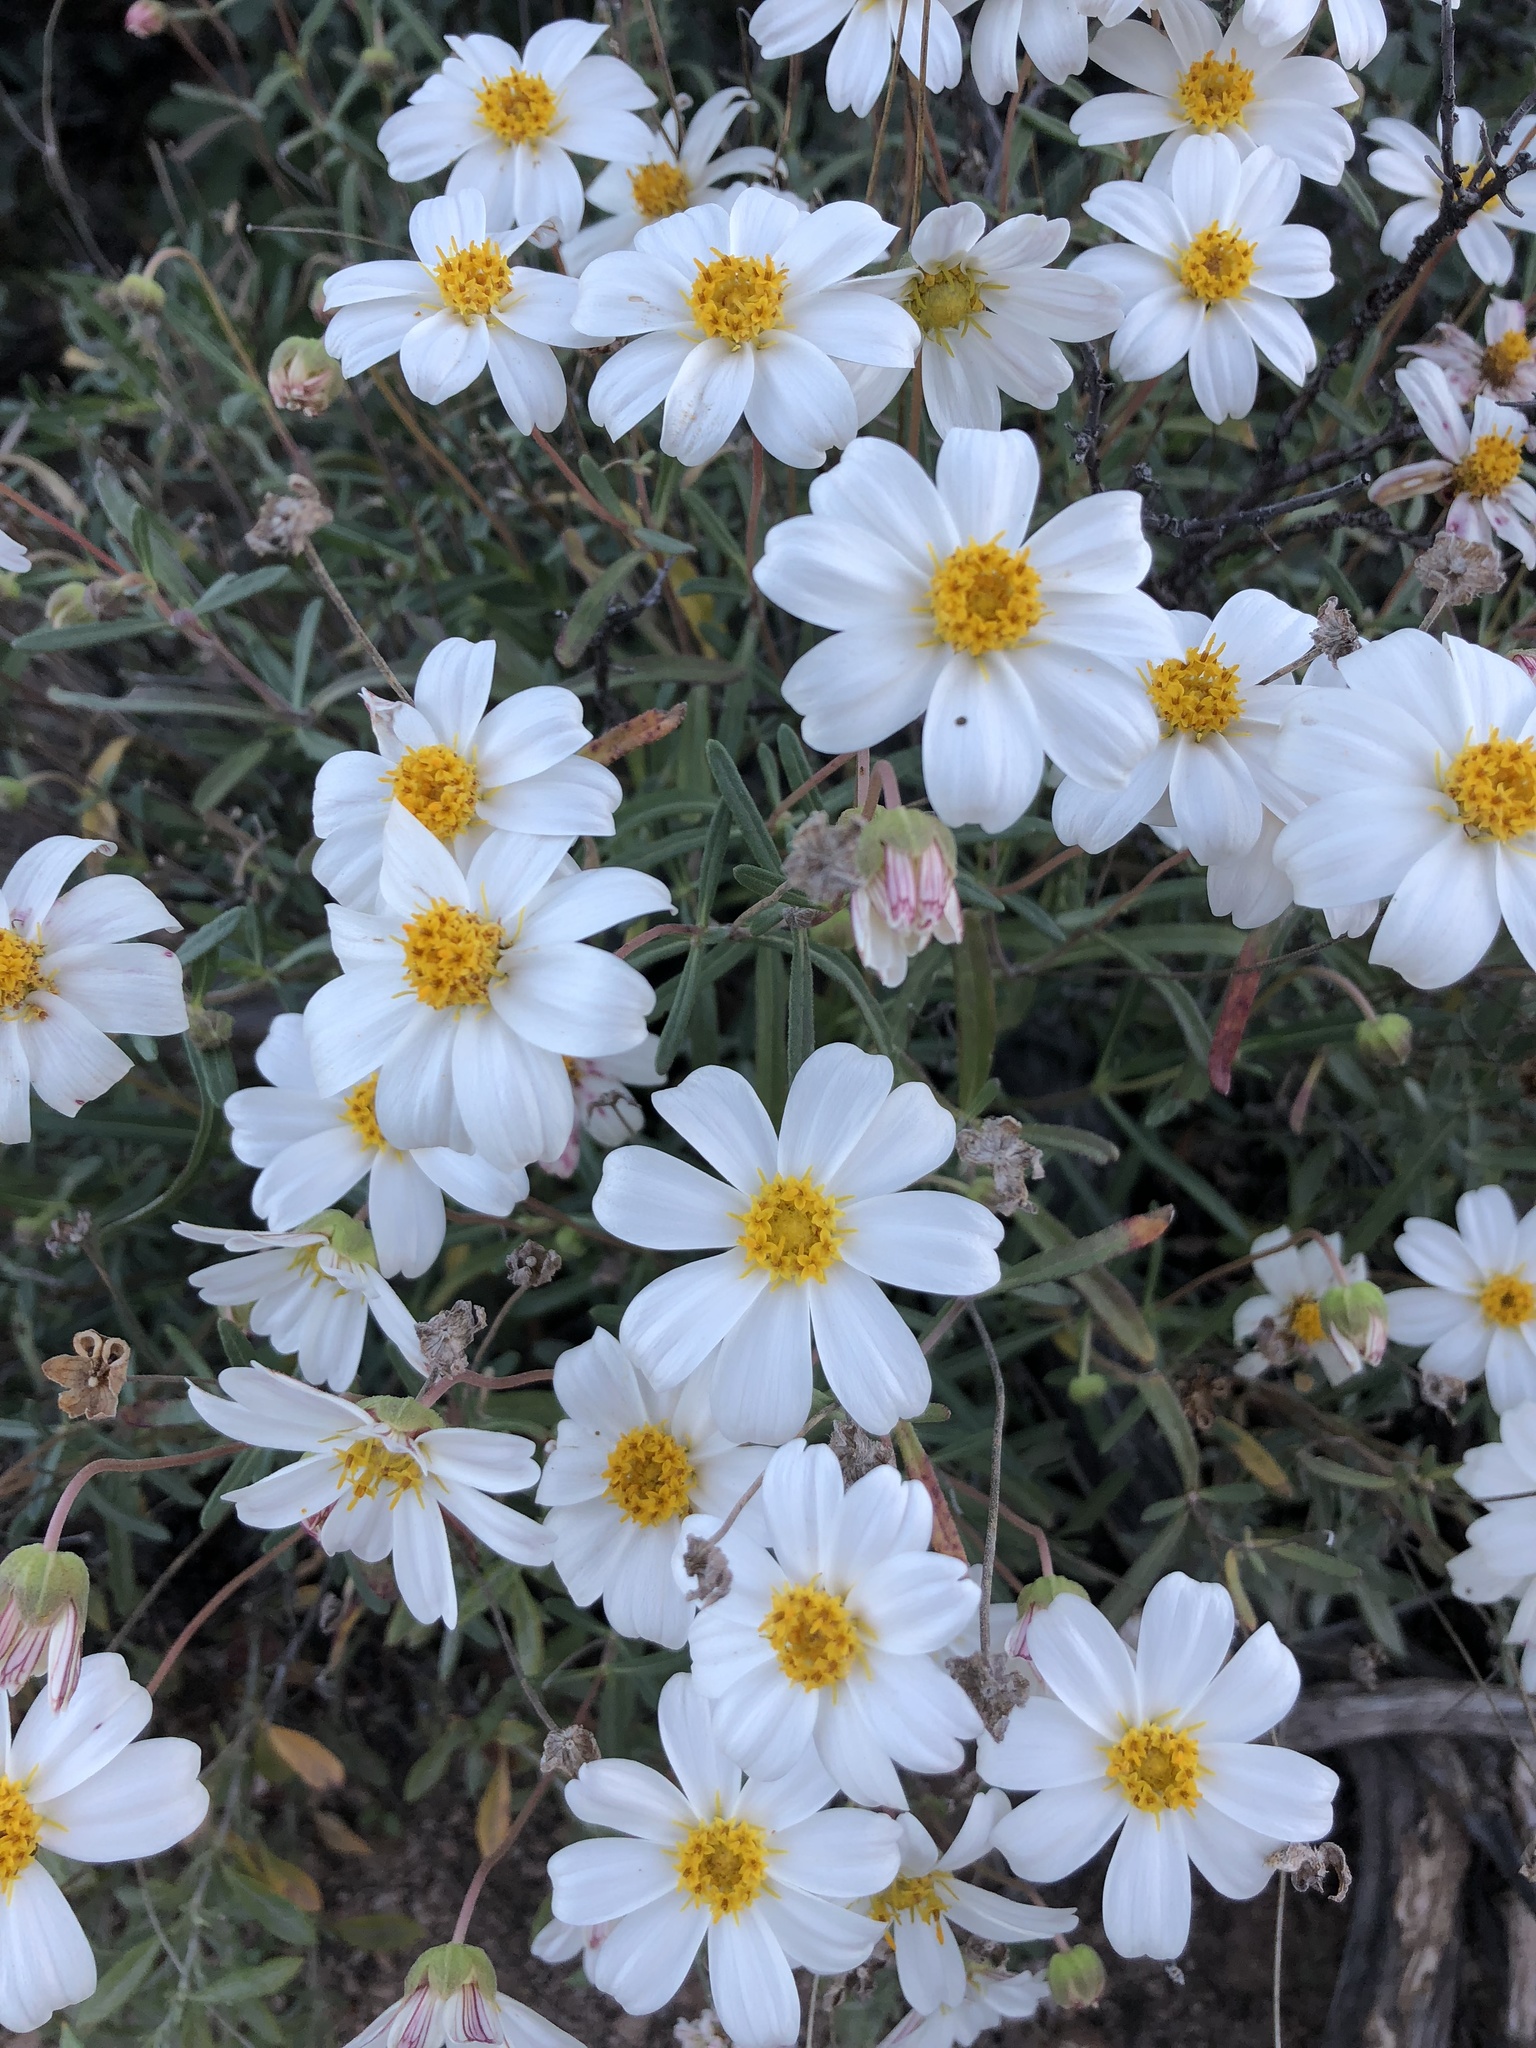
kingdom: Plantae
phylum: Tracheophyta
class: Magnoliopsida
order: Asterales
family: Asteraceae
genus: Melampodium
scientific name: Melampodium leucanthum
